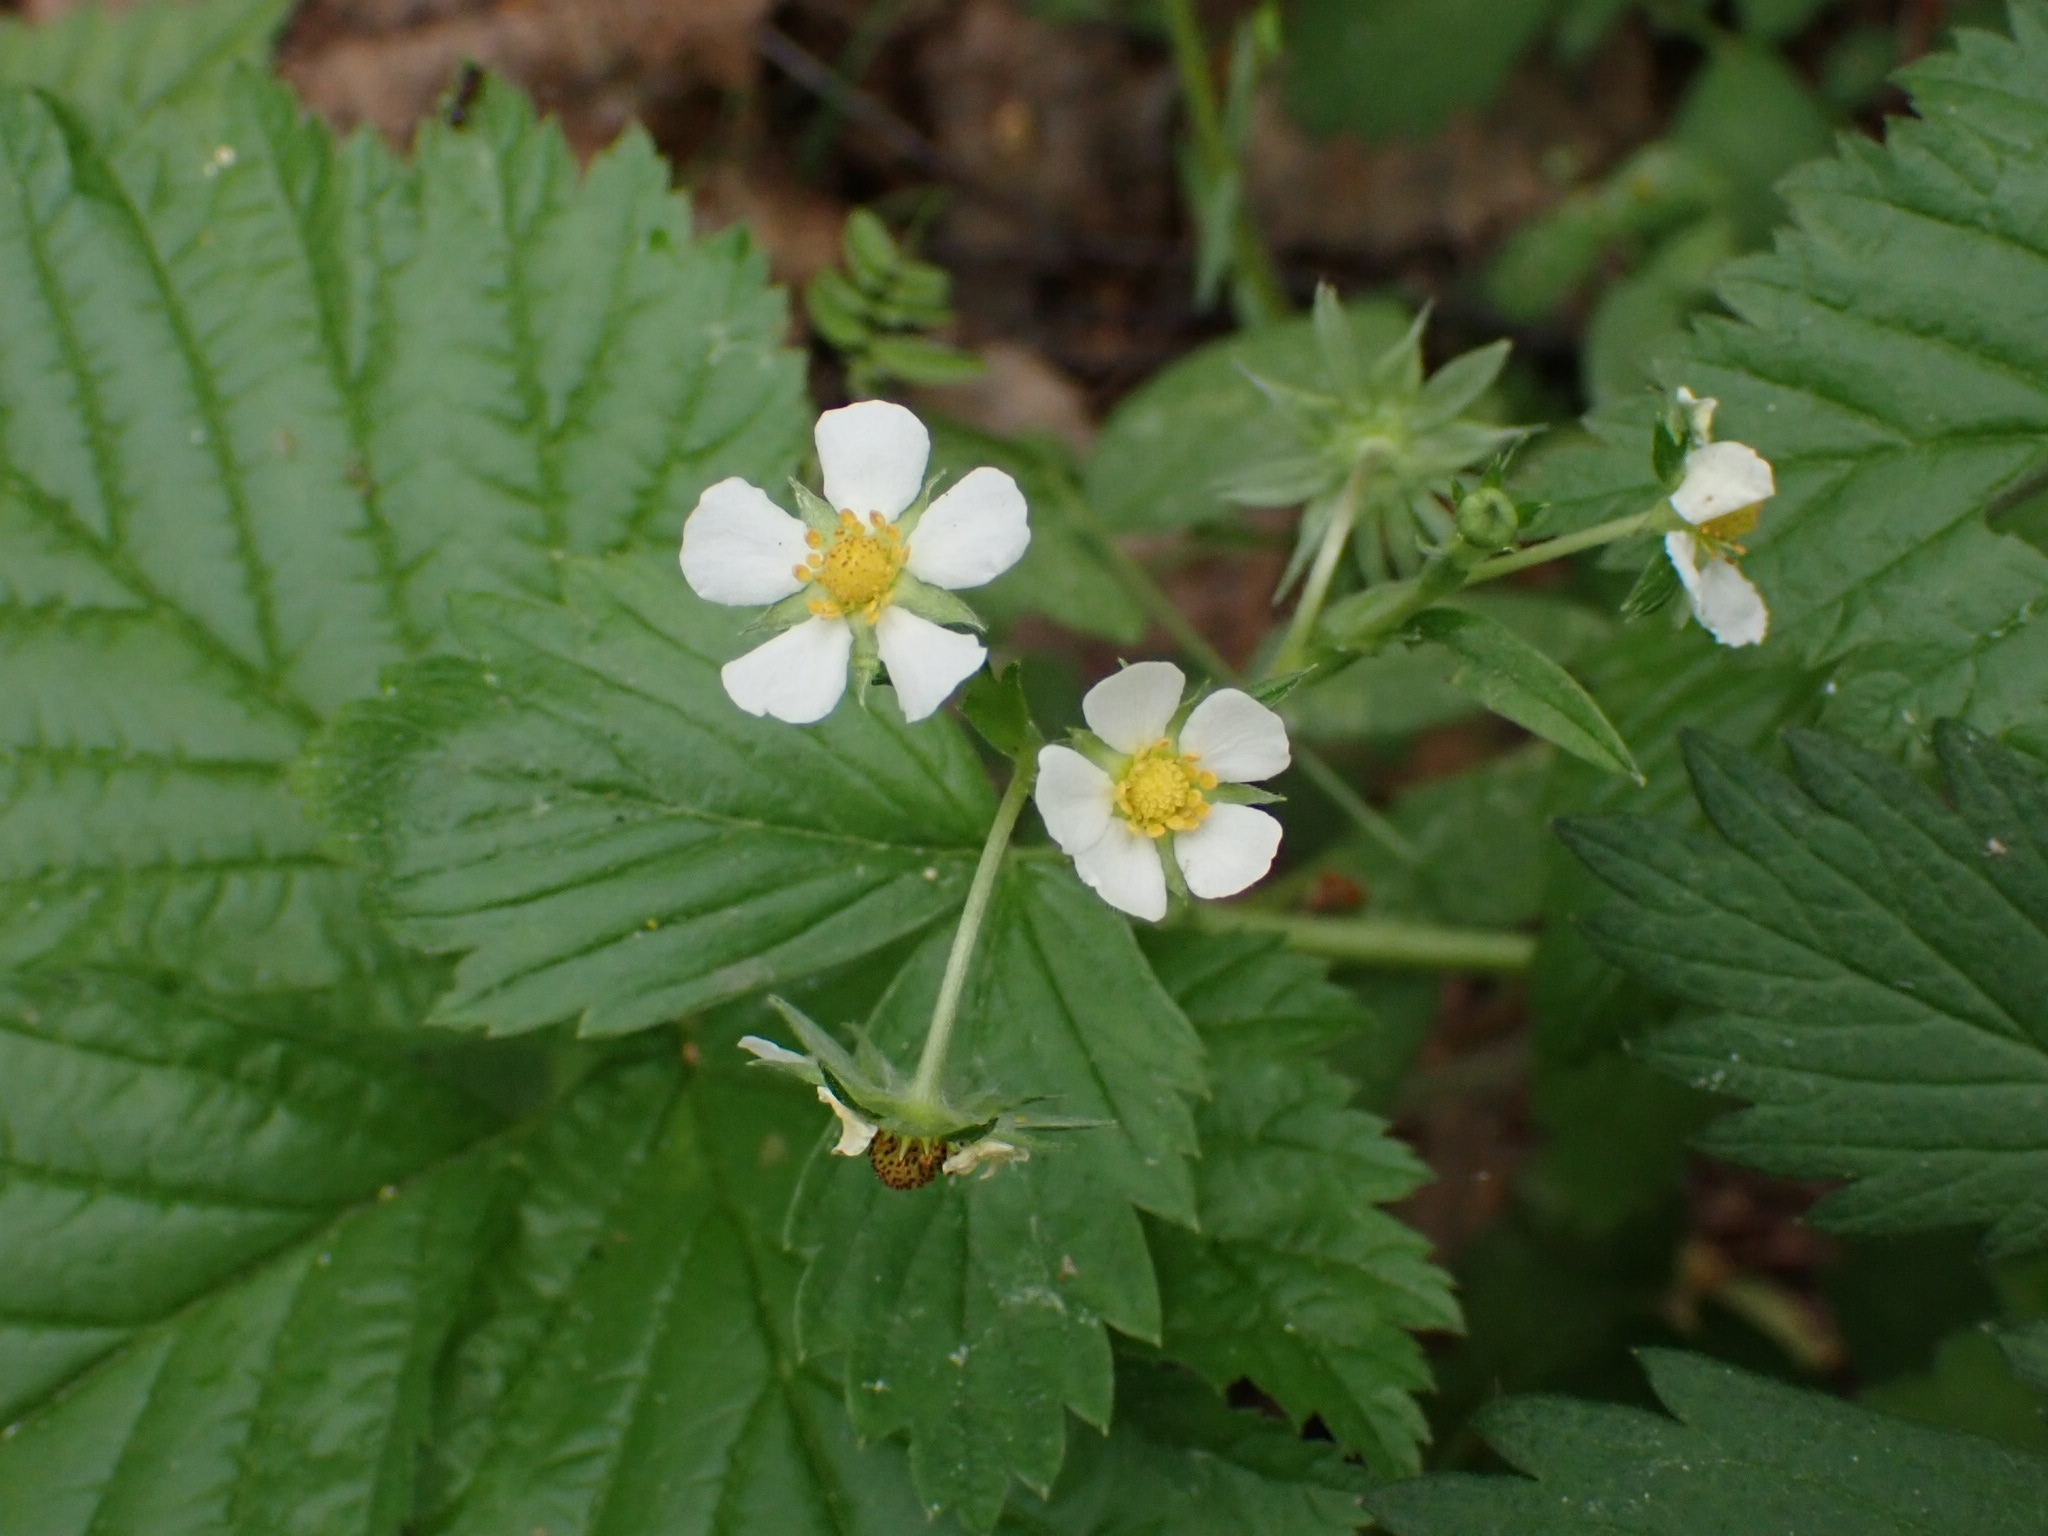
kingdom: Plantae
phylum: Tracheophyta
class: Magnoliopsida
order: Rosales
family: Rosaceae
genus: Fragaria
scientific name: Fragaria vesca
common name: Wild strawberry
